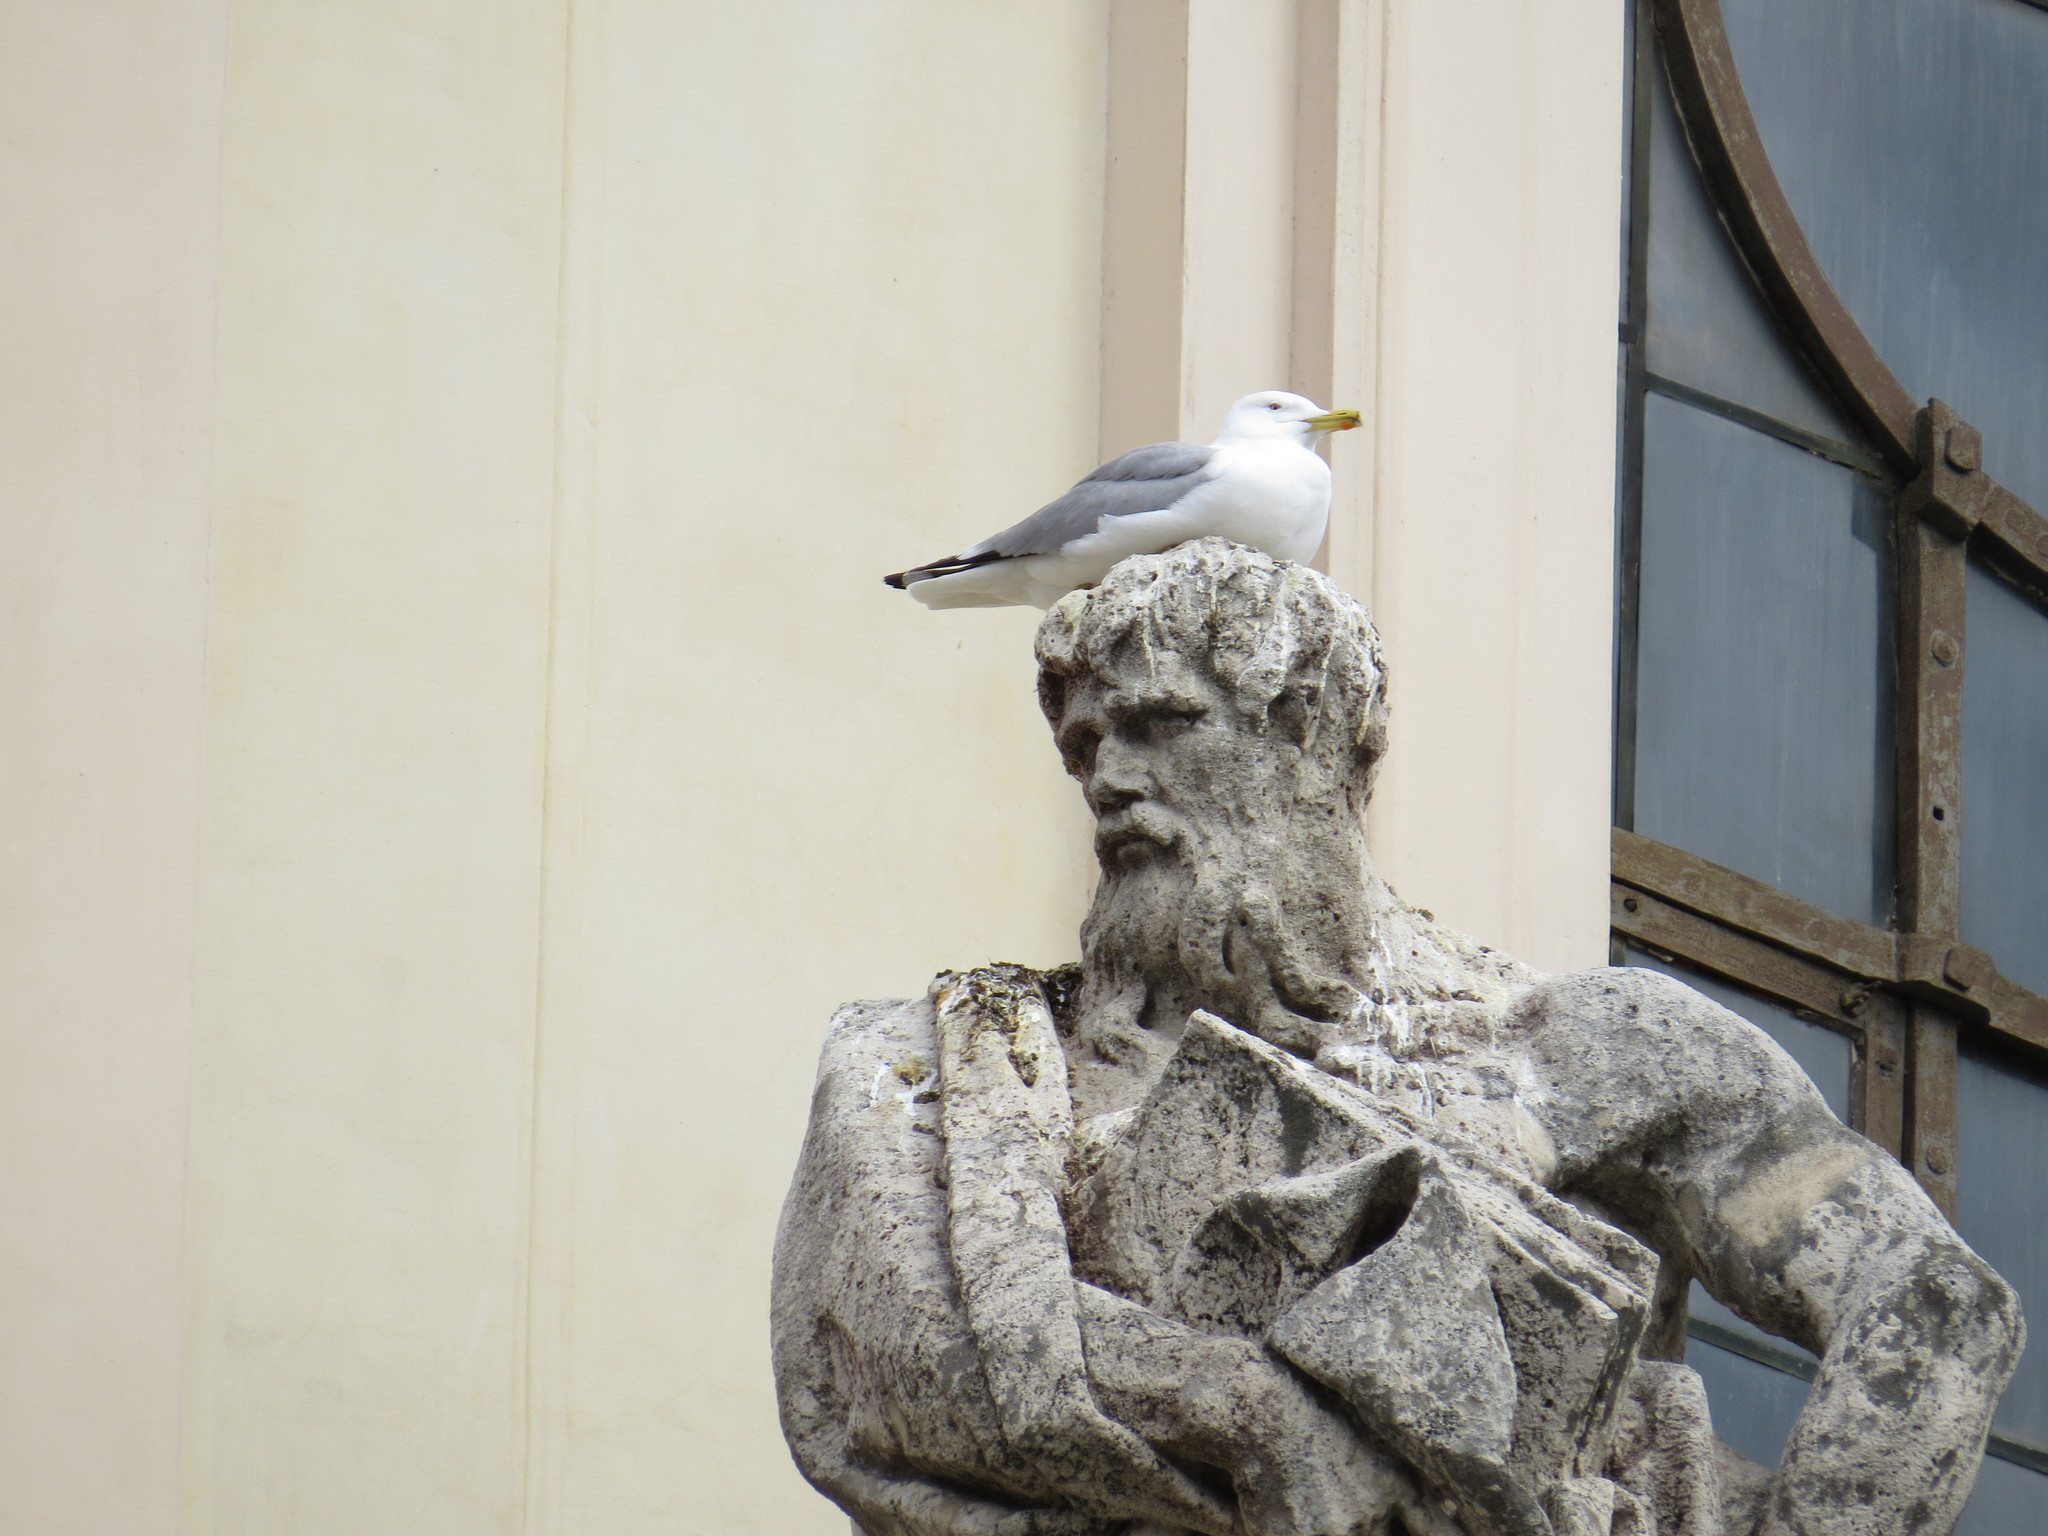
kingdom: Animalia
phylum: Chordata
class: Aves
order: Charadriiformes
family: Laridae
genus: Larus
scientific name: Larus michahellis
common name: Yellow-legged gull
